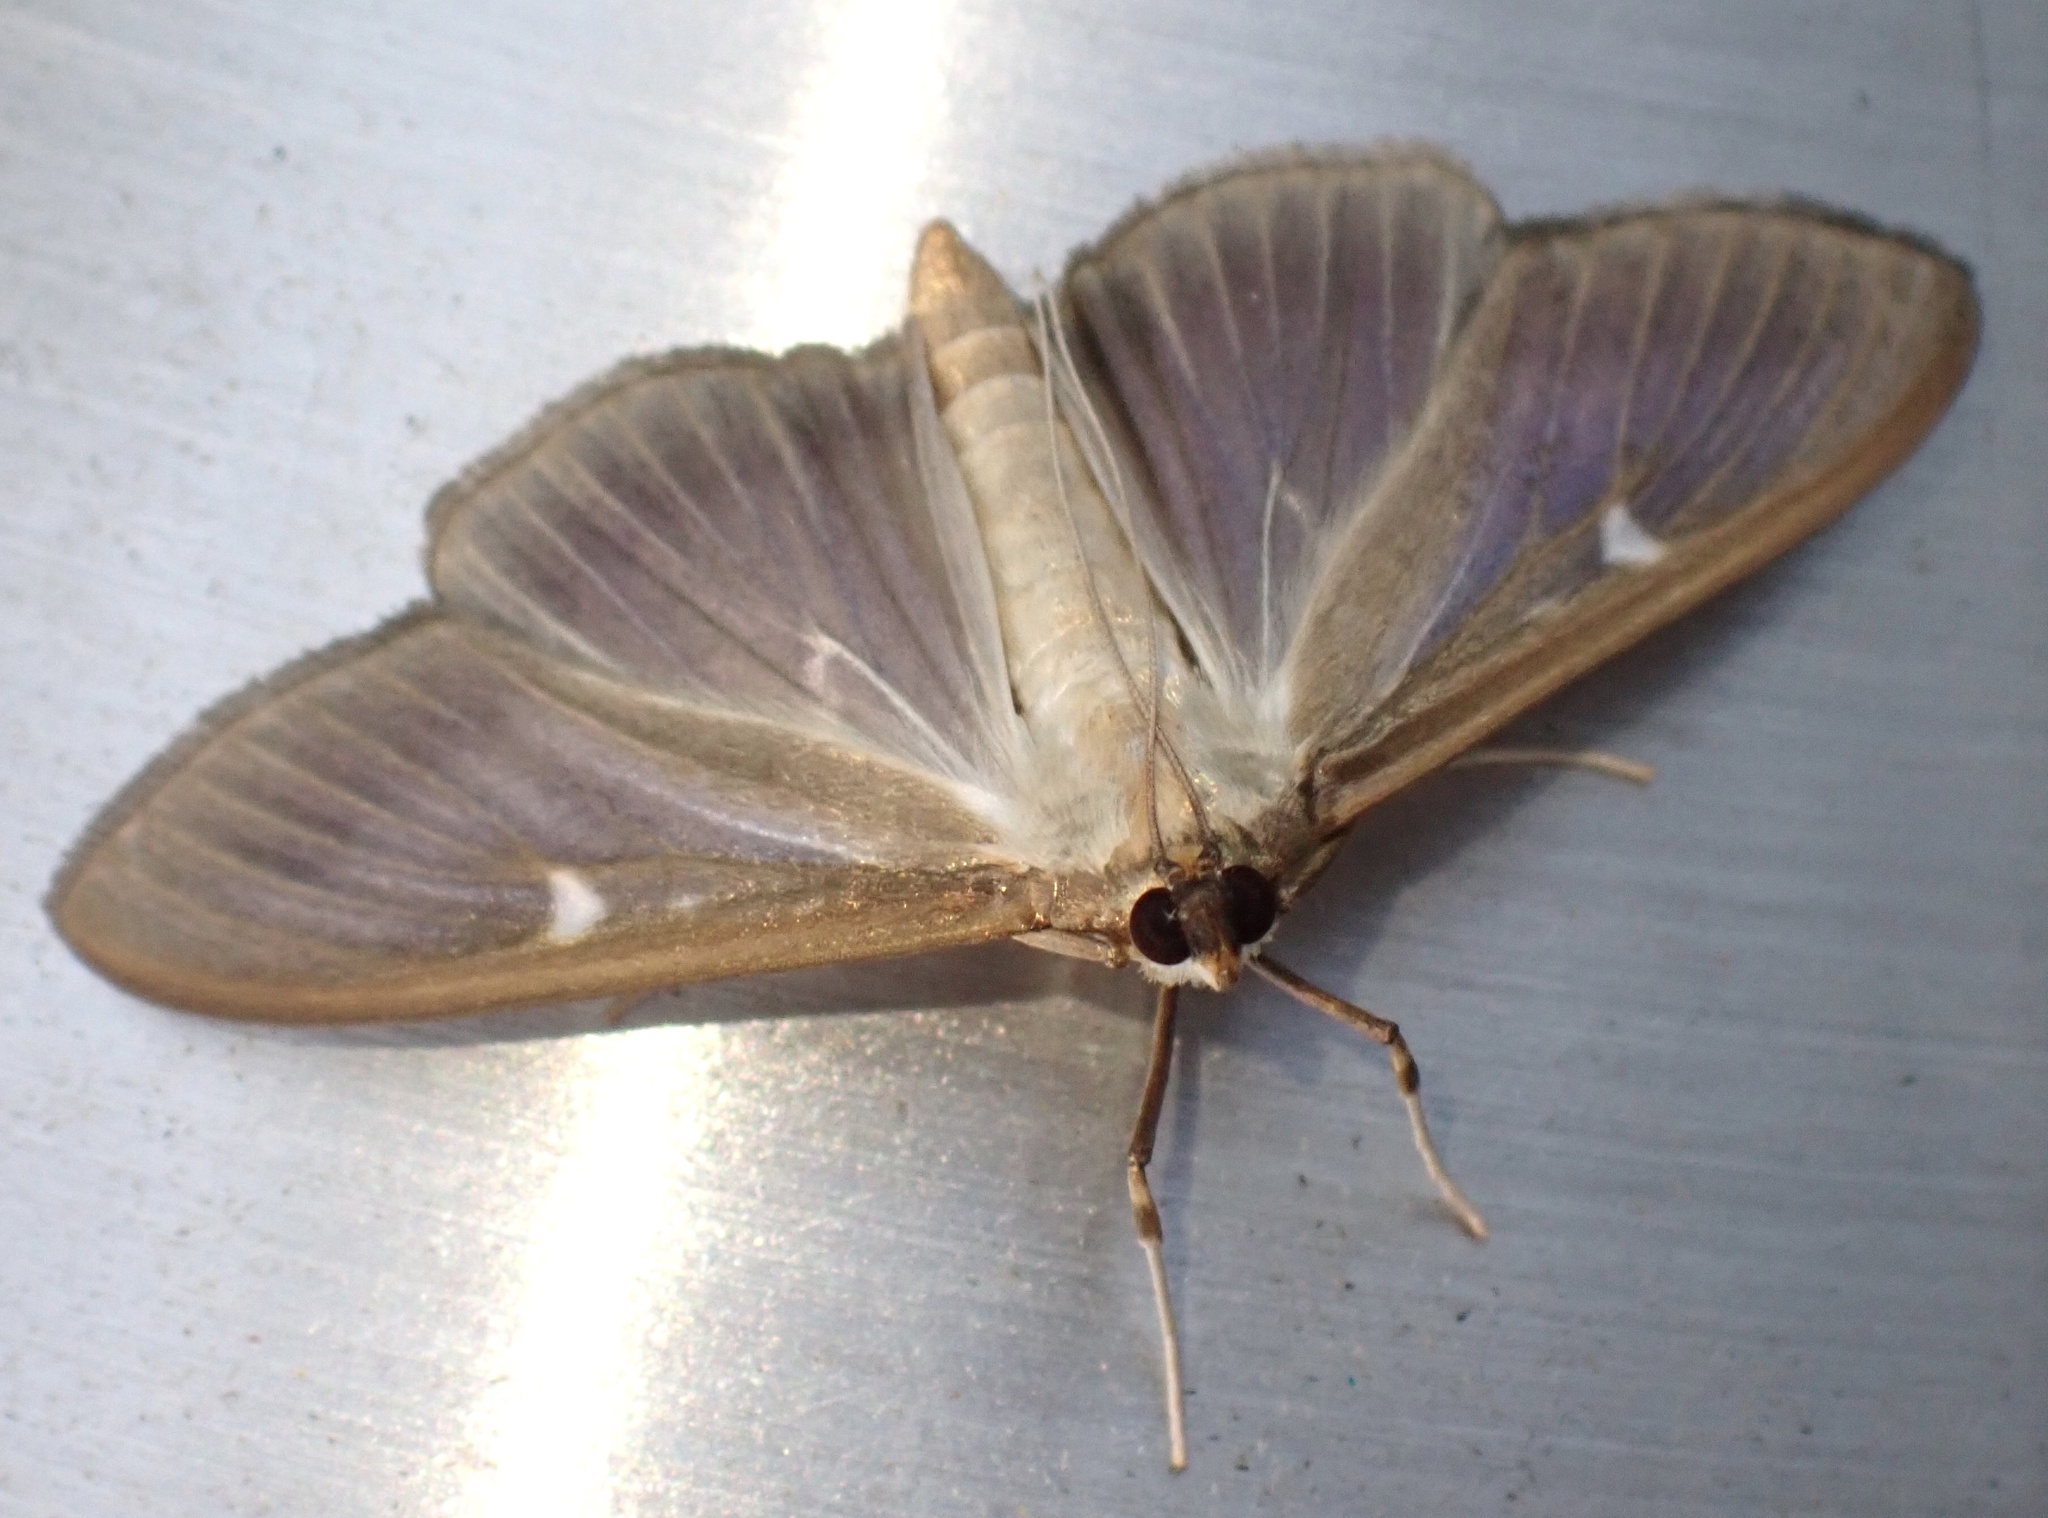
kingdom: Animalia
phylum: Arthropoda
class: Insecta
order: Lepidoptera
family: Crambidae
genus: Cydalima
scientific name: Cydalima perspectalis
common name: Box tree moth
